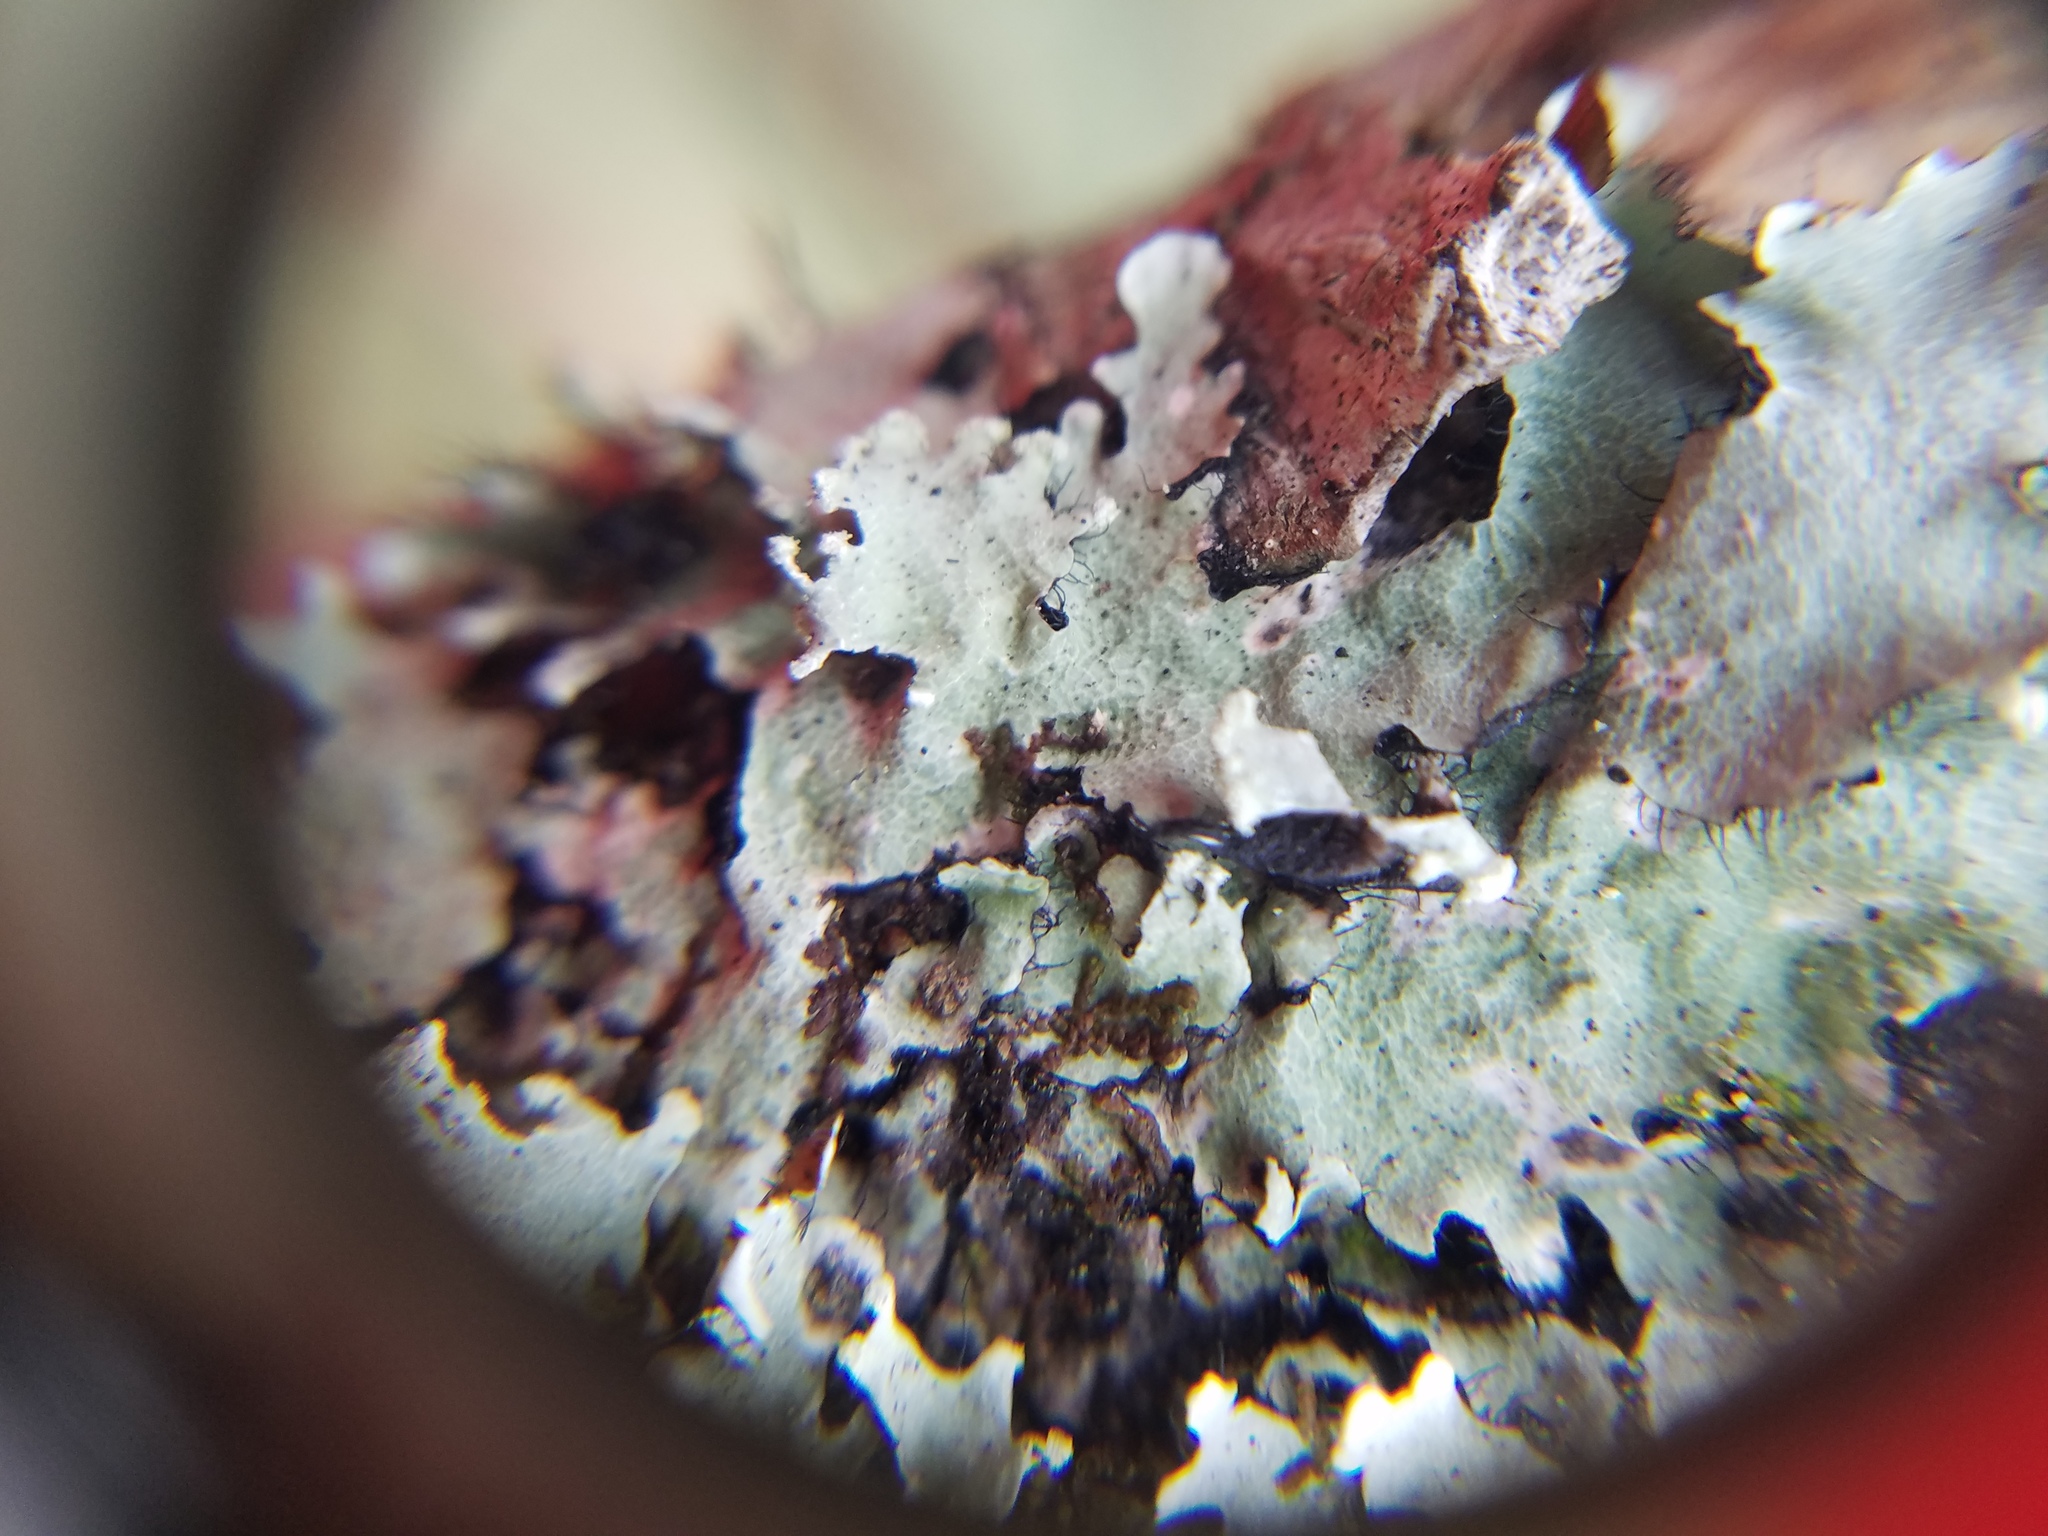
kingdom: Fungi
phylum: Ascomycota
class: Lecanoromycetes
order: Lecanorales
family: Parmeliaceae
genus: Parmotrema
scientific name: Parmotrema reticulatum
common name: Black sheet lichen
